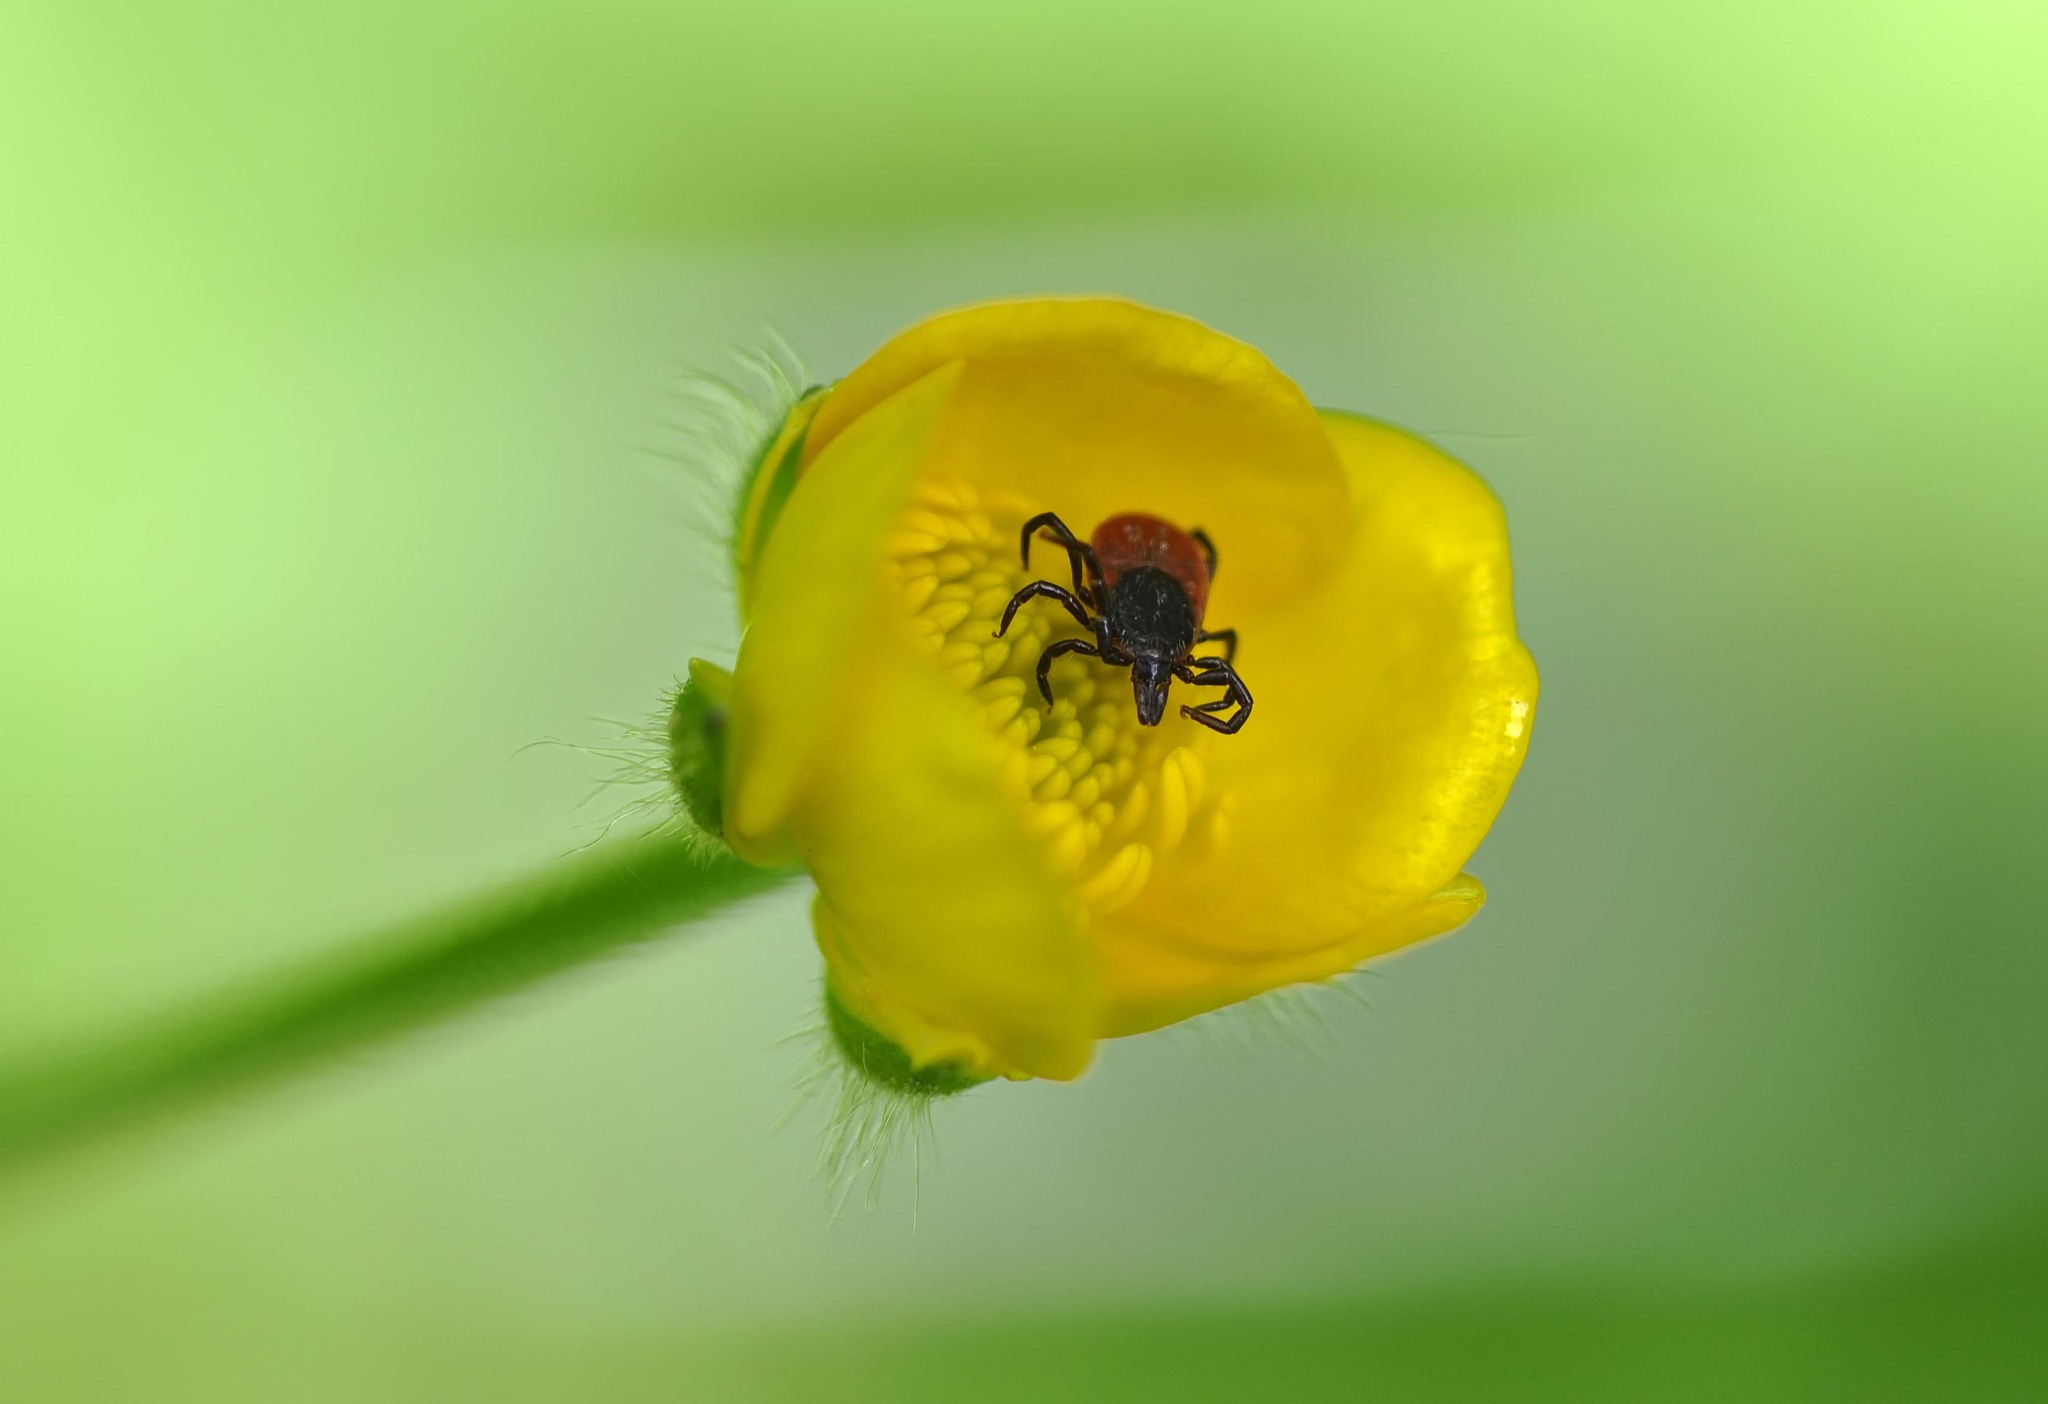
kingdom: Animalia
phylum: Arthropoda
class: Arachnida
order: Ixodida
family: Ixodidae
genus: Ixodes
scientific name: Ixodes ricinus
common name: Castor bean tick
